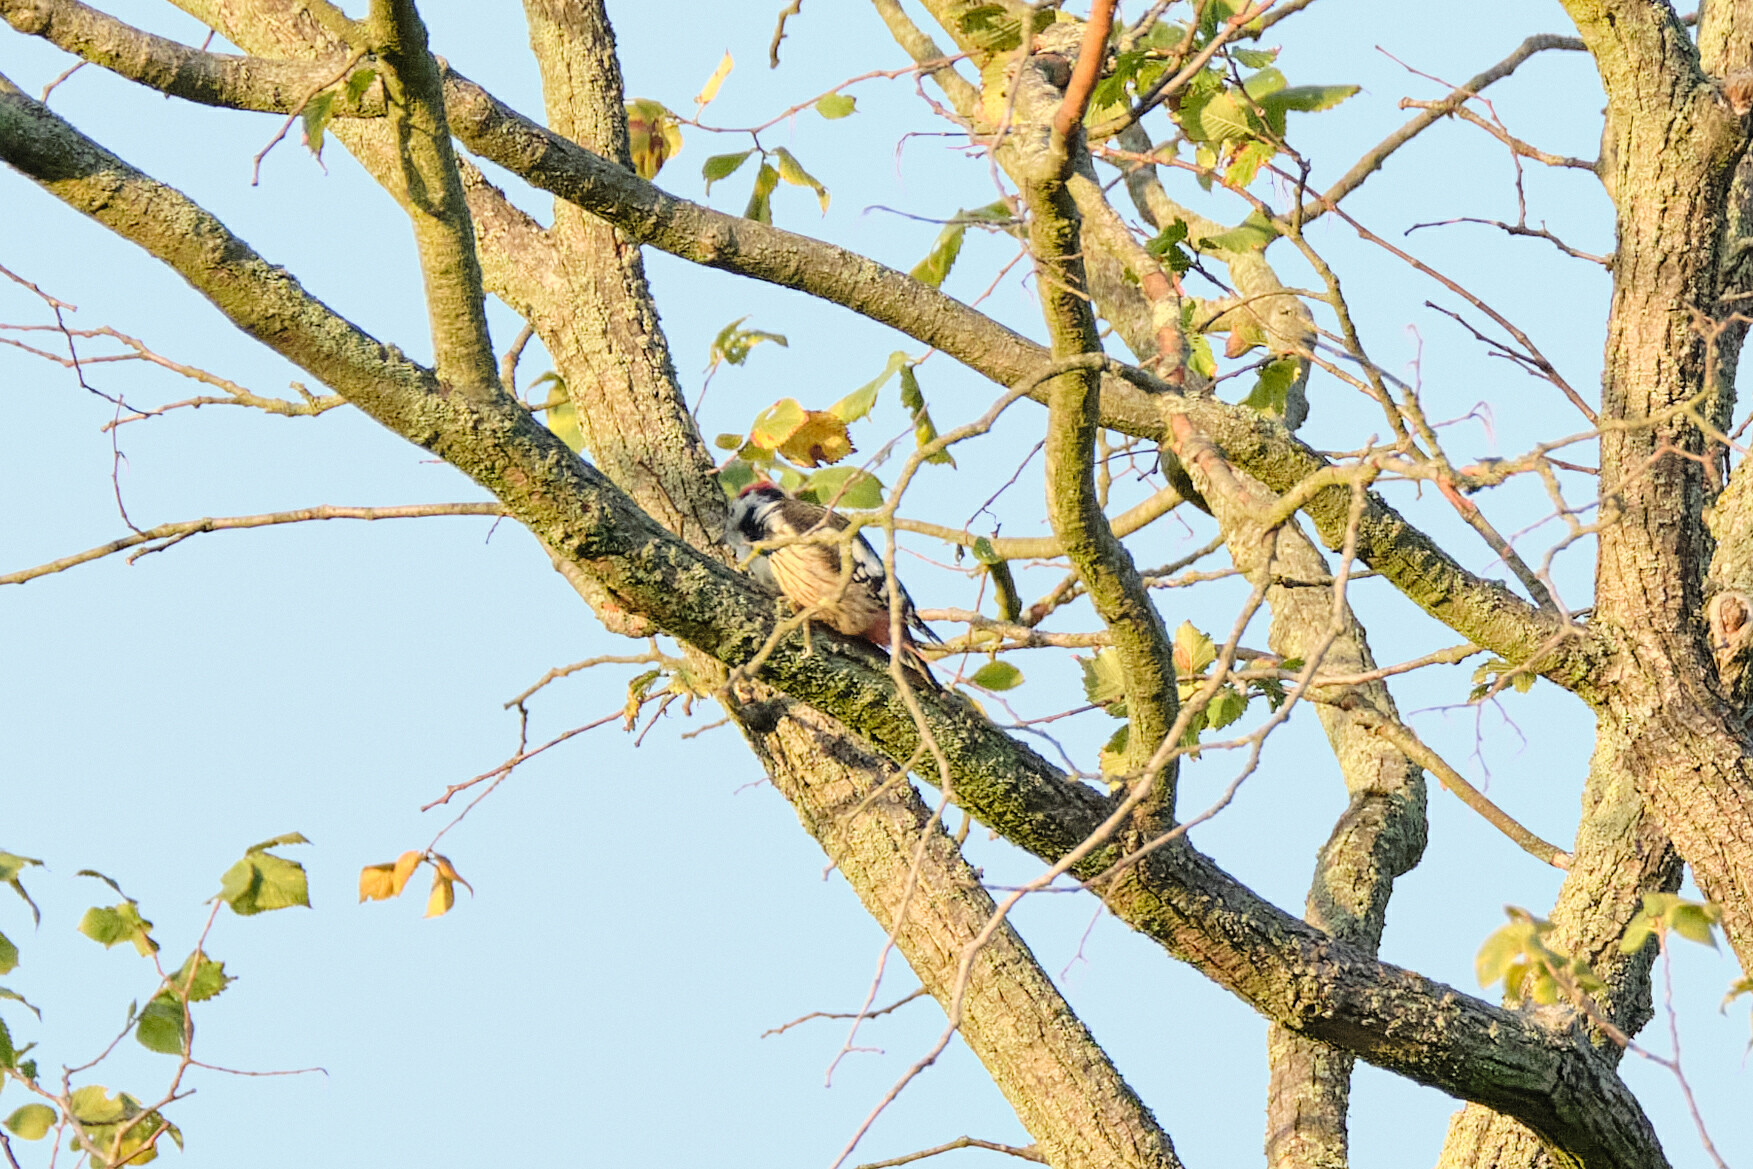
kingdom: Animalia
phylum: Chordata
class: Aves
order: Piciformes
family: Picidae
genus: Dendrocoptes
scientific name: Dendrocoptes medius
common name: Middle spotted woodpecker
